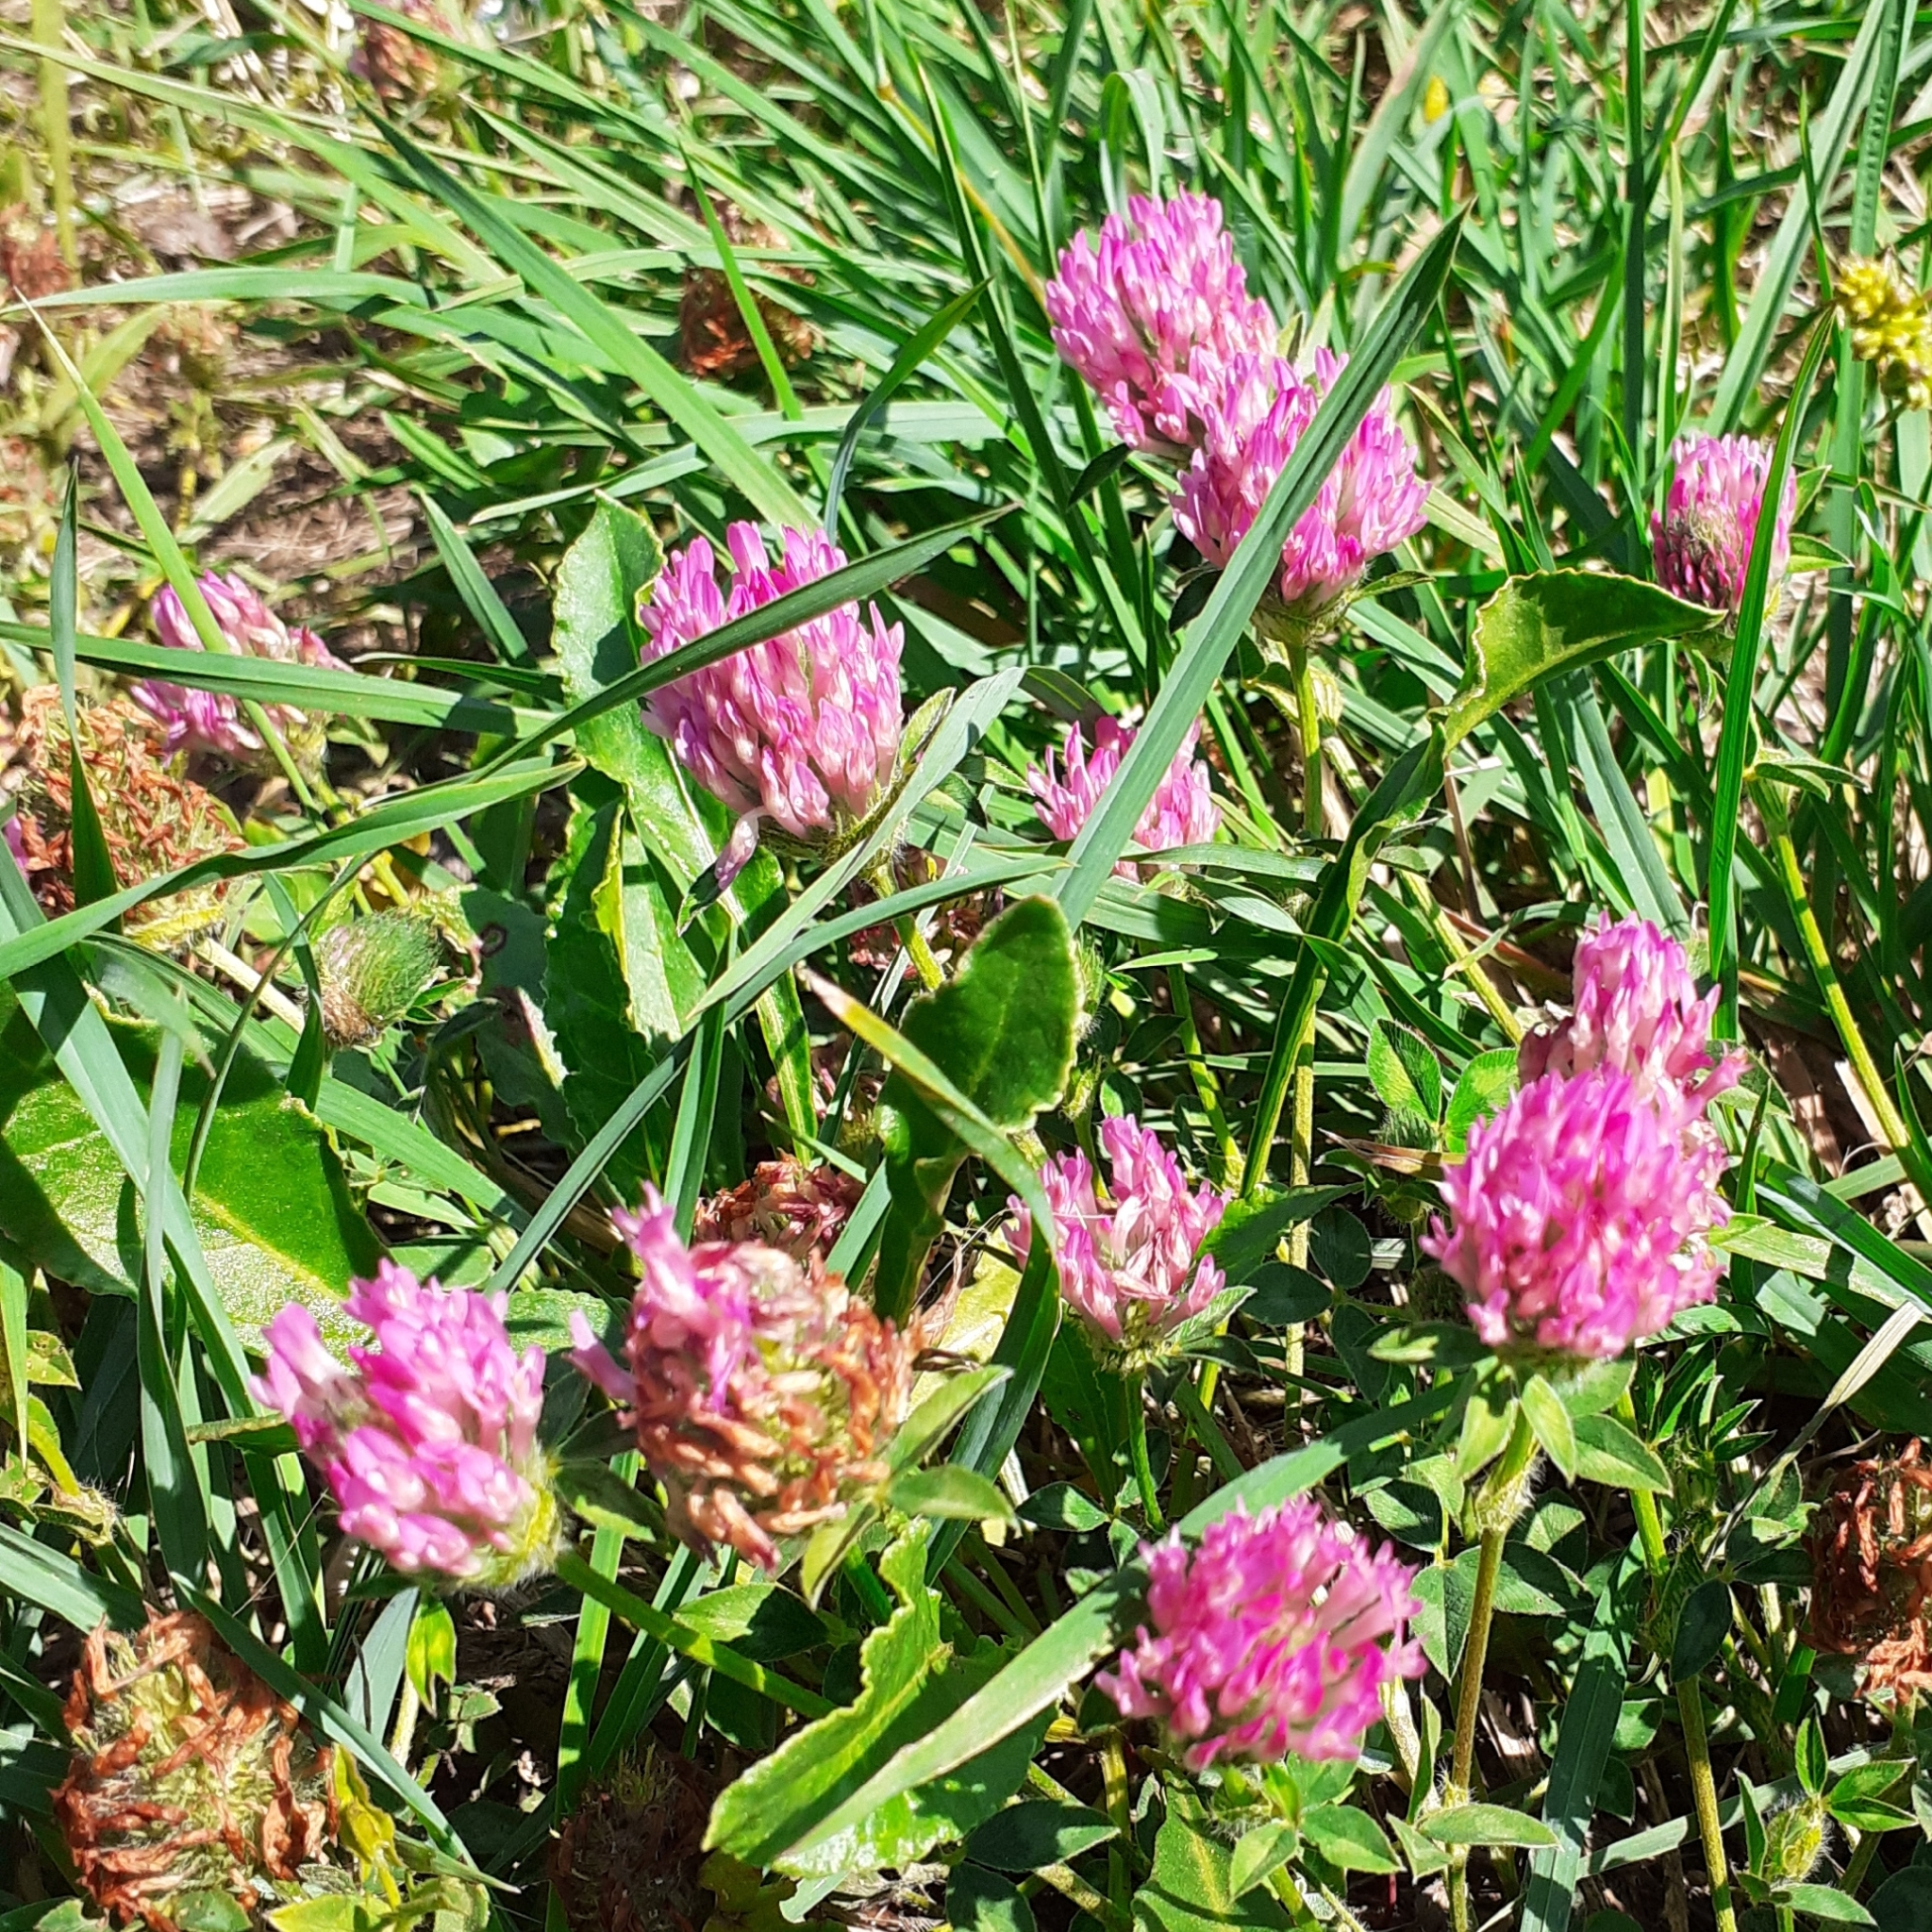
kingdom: Plantae
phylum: Tracheophyta
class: Magnoliopsida
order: Fabales
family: Fabaceae
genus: Trifolium
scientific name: Trifolium pratense
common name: Red clover
